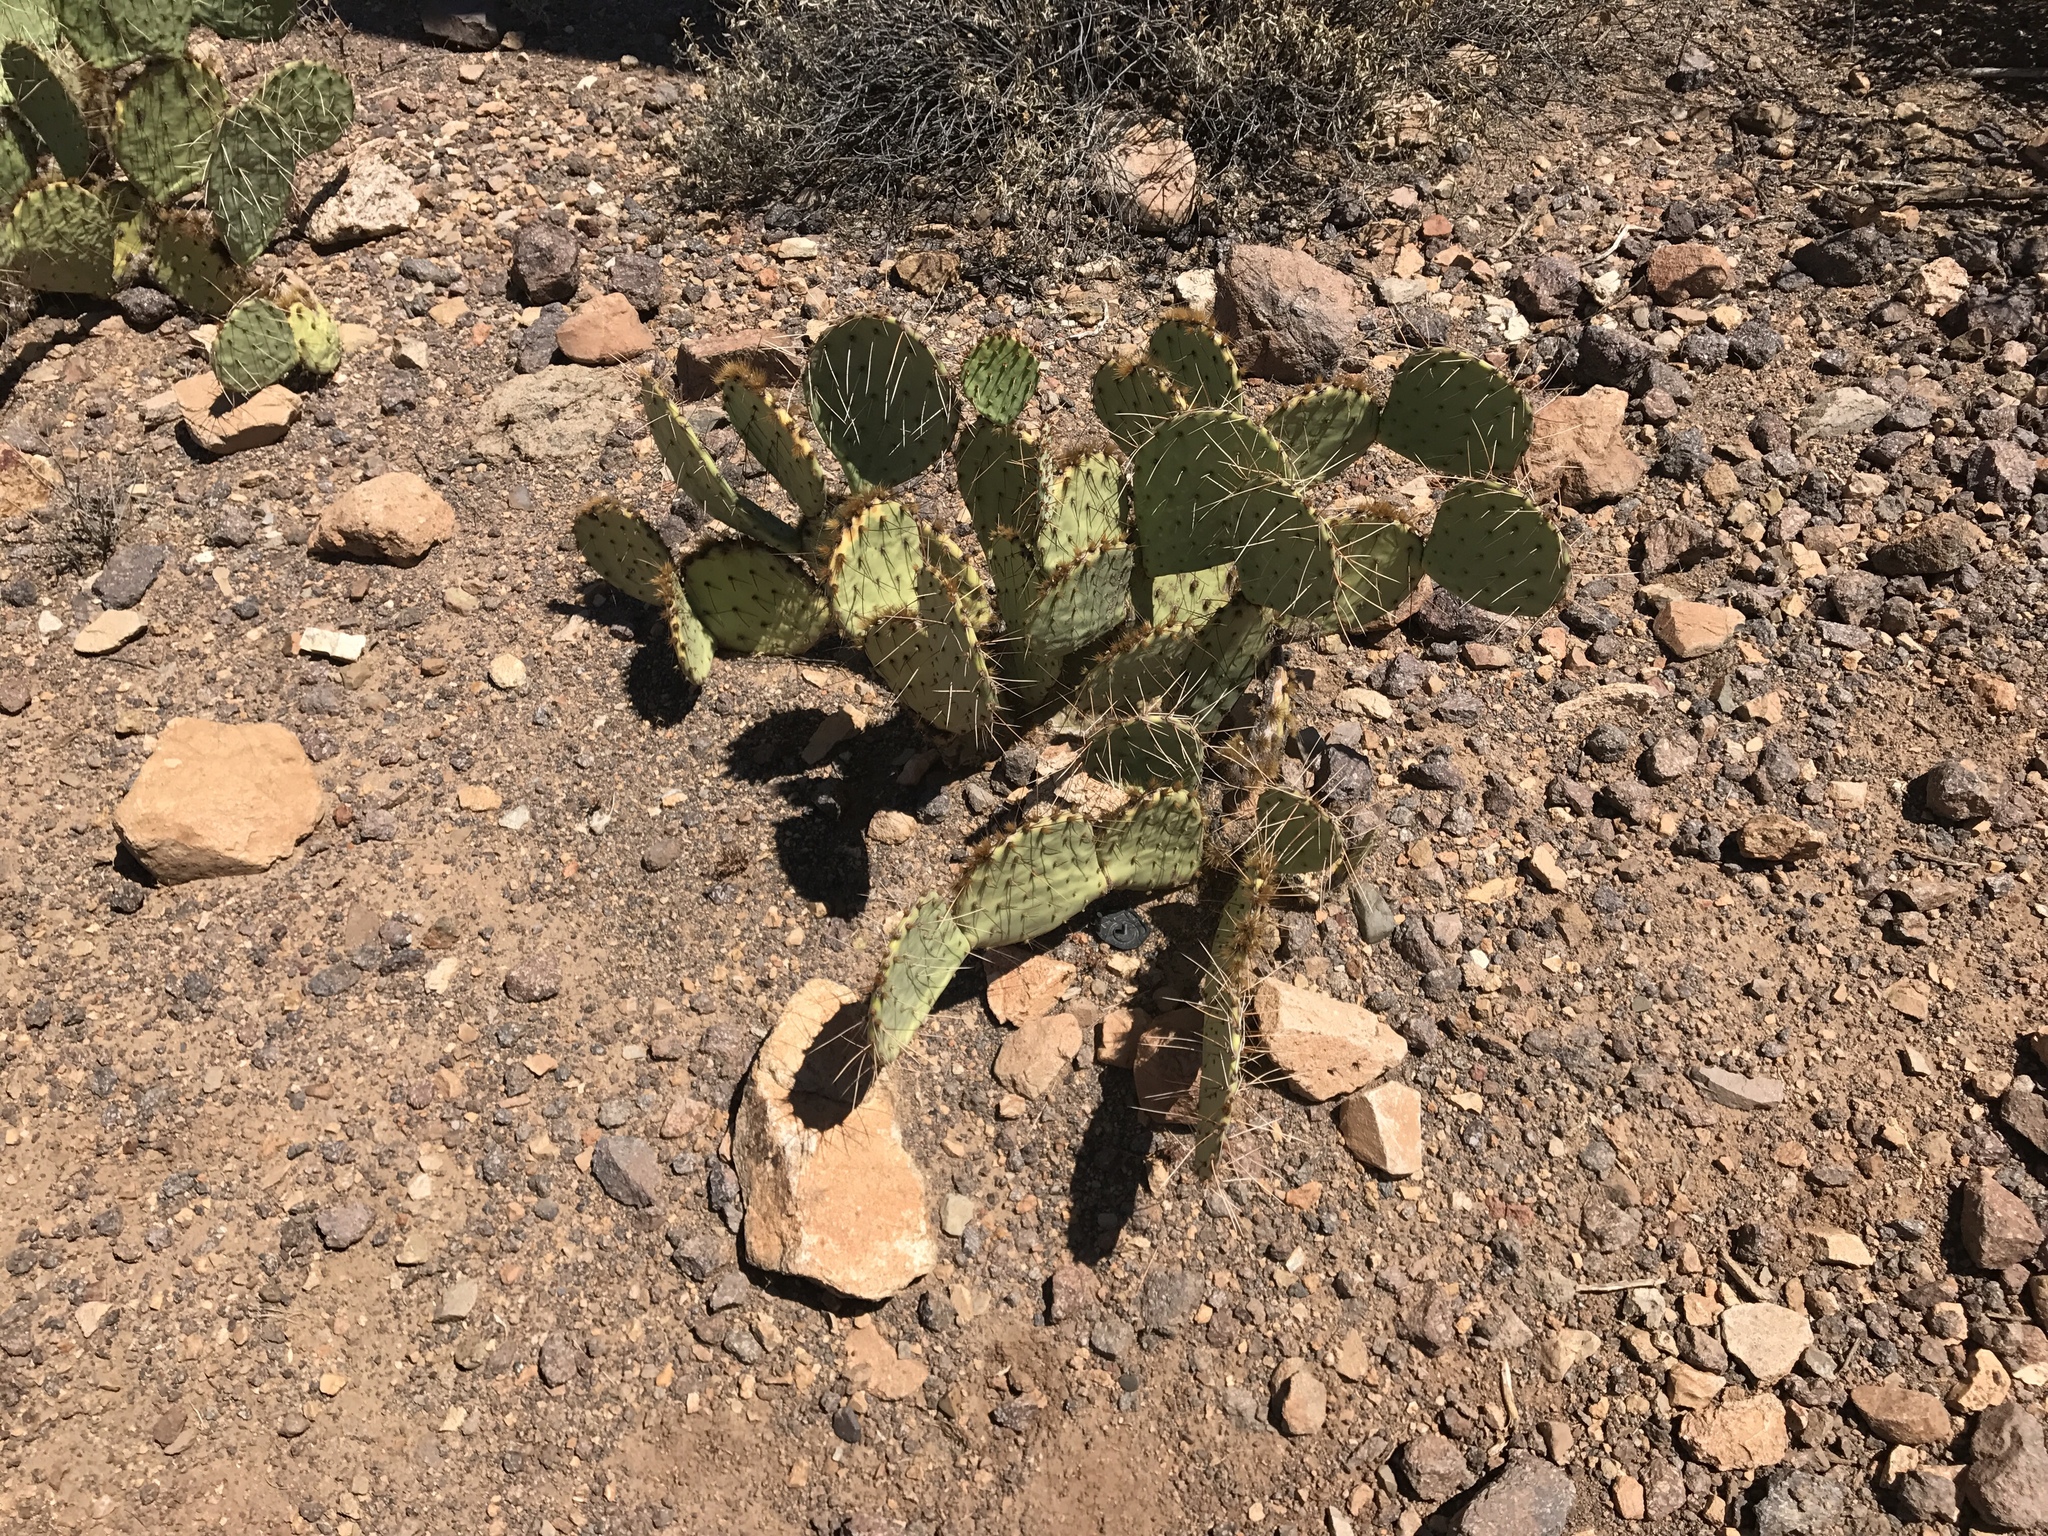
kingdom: Plantae
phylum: Tracheophyta
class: Magnoliopsida
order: Caryophyllales
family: Cactaceae
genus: Opuntia
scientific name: Opuntia engelmannii
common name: Cactus-apple
